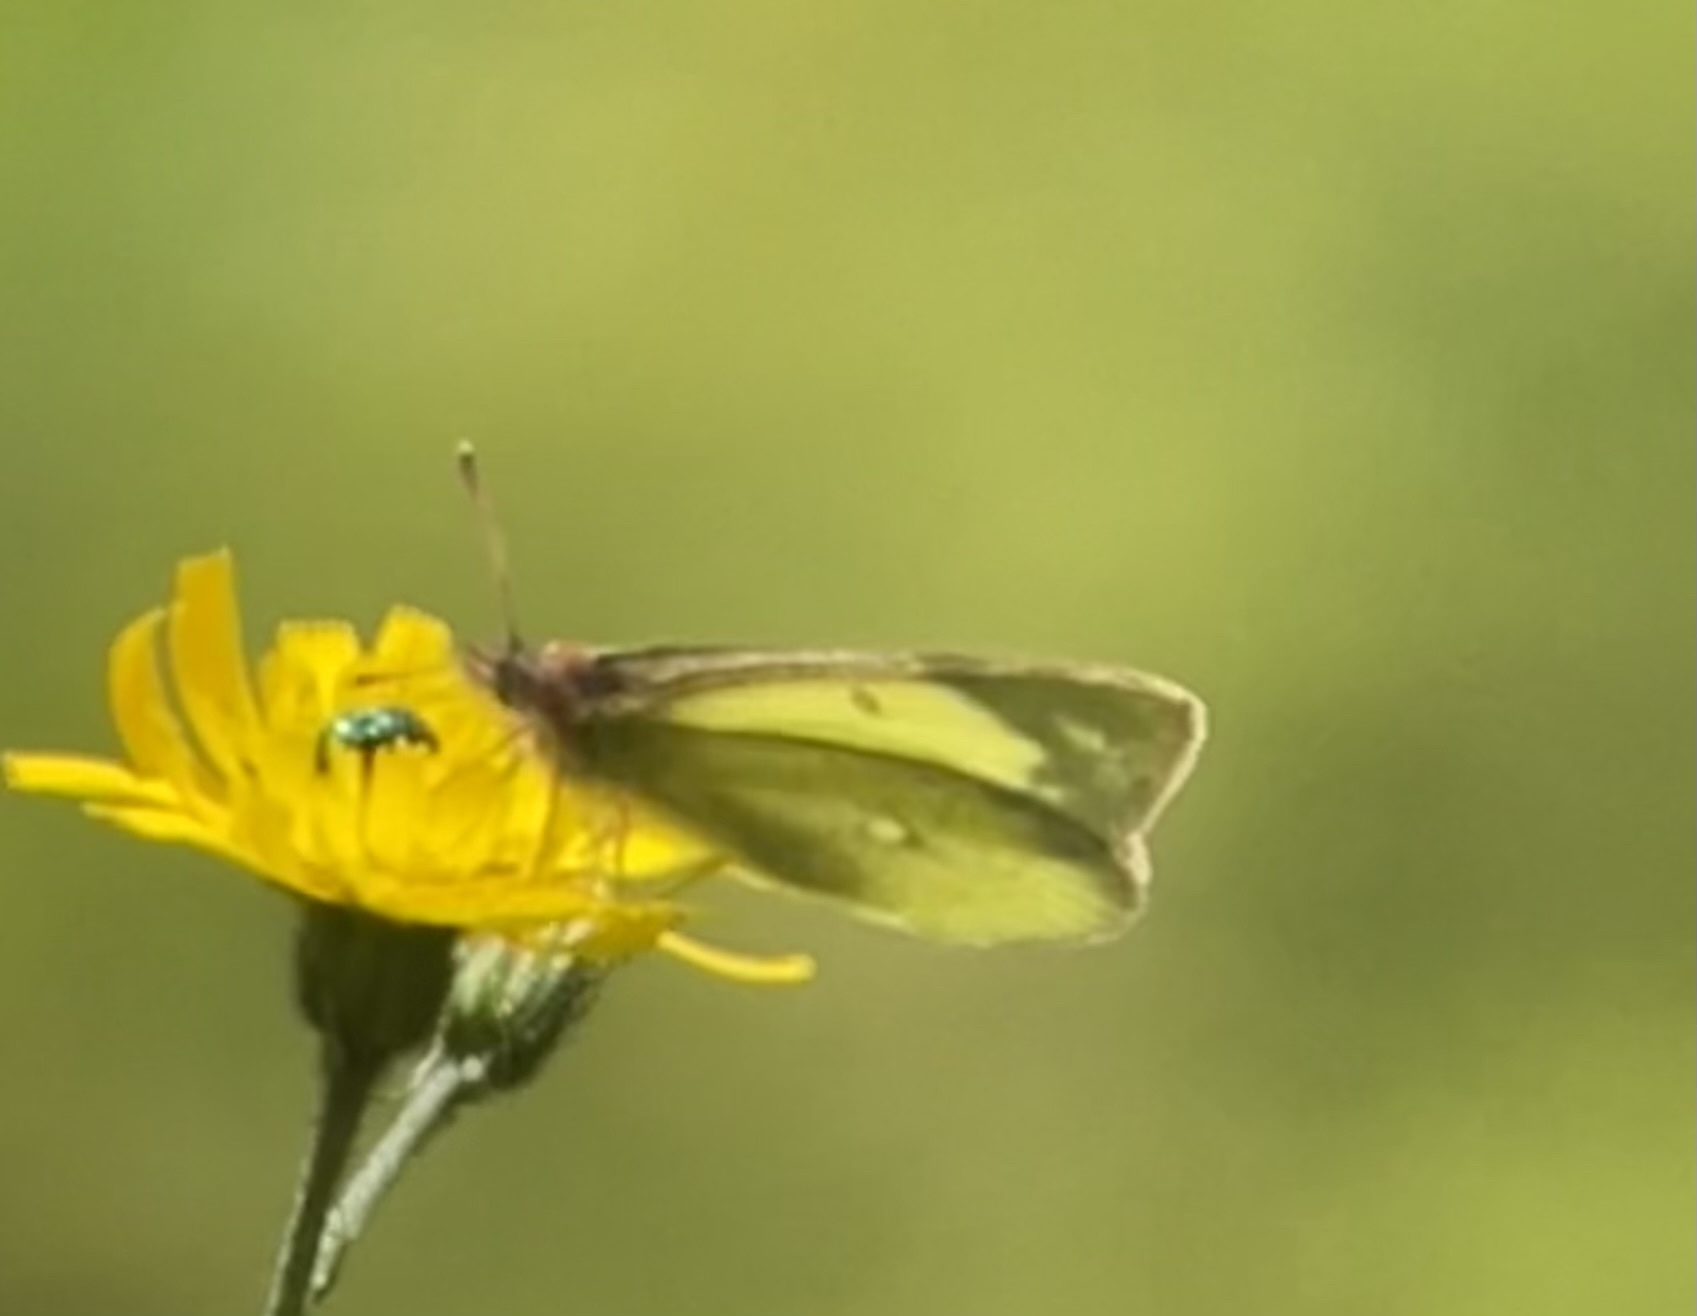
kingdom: Animalia
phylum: Arthropoda
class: Insecta
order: Lepidoptera
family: Pieridae
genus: Colias
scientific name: Colias palaeno
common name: Moorland clouded yellow
